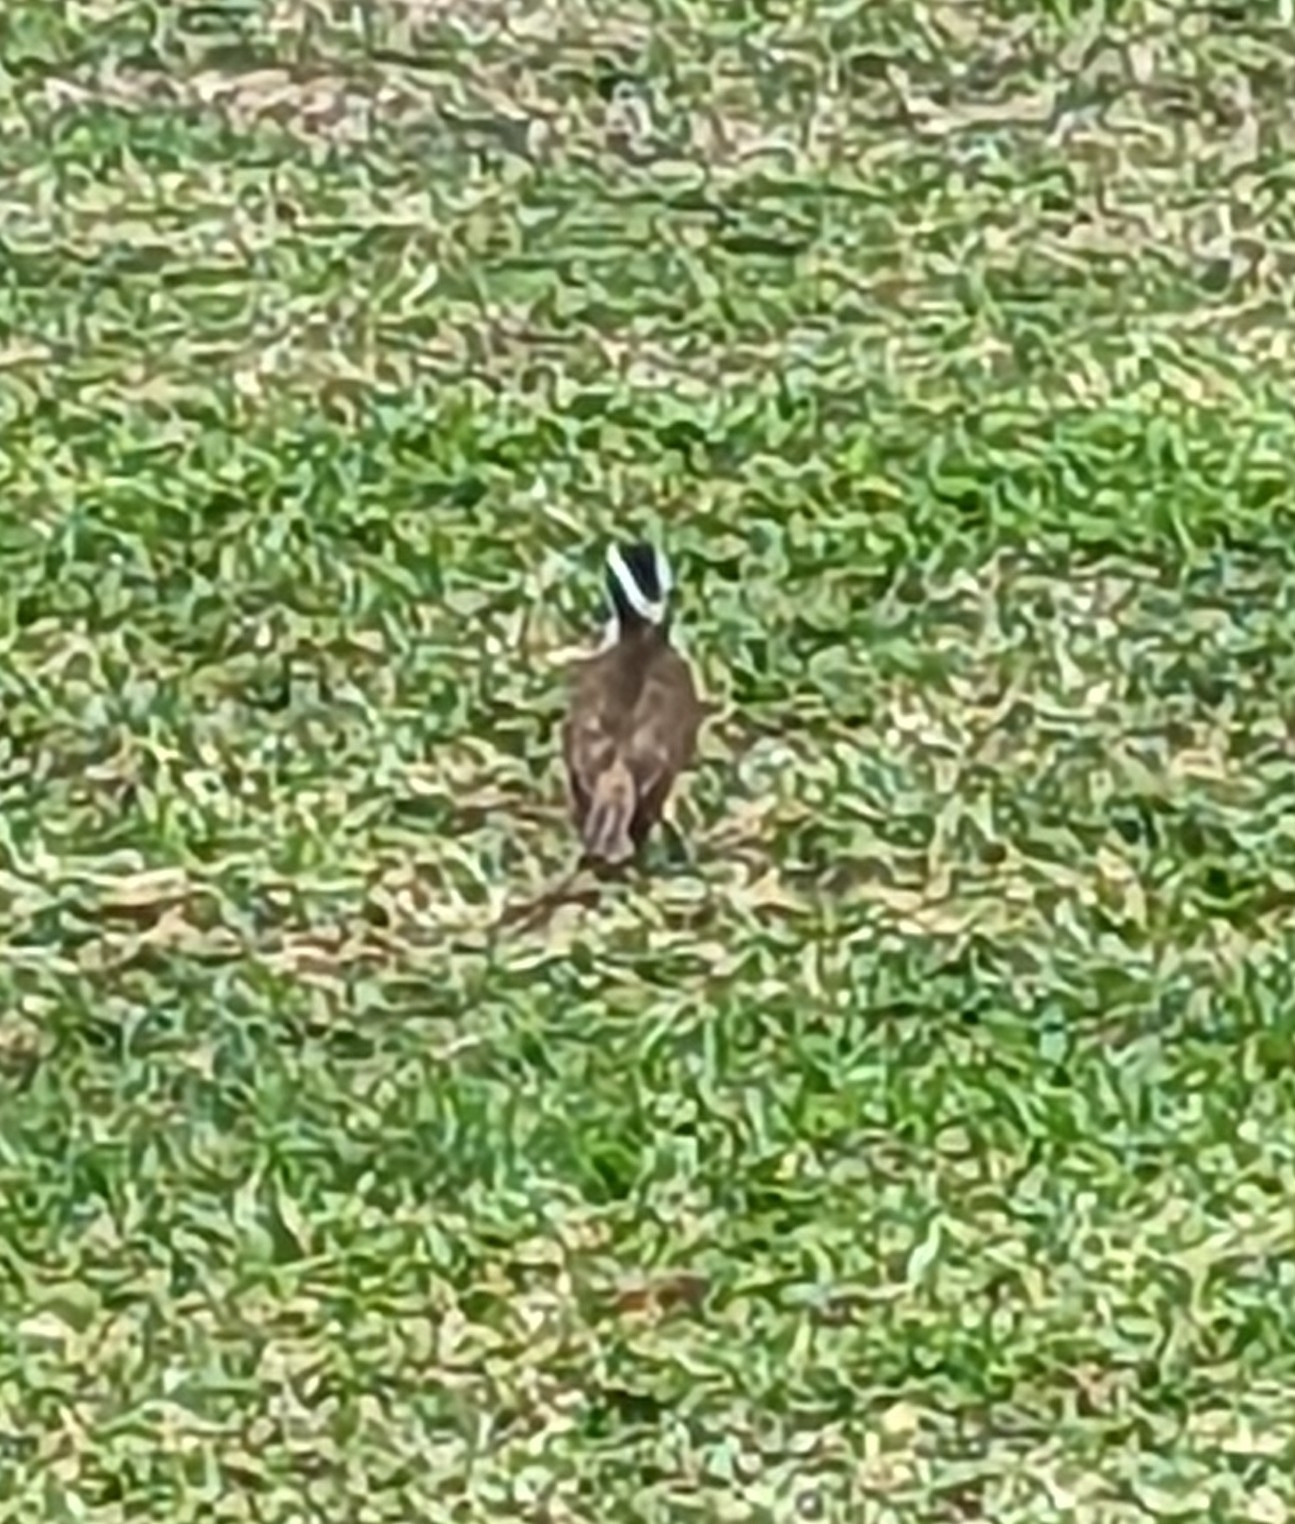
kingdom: Animalia
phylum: Chordata
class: Aves
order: Passeriformes
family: Tyrannidae
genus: Pitangus
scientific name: Pitangus sulphuratus
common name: Great kiskadee
